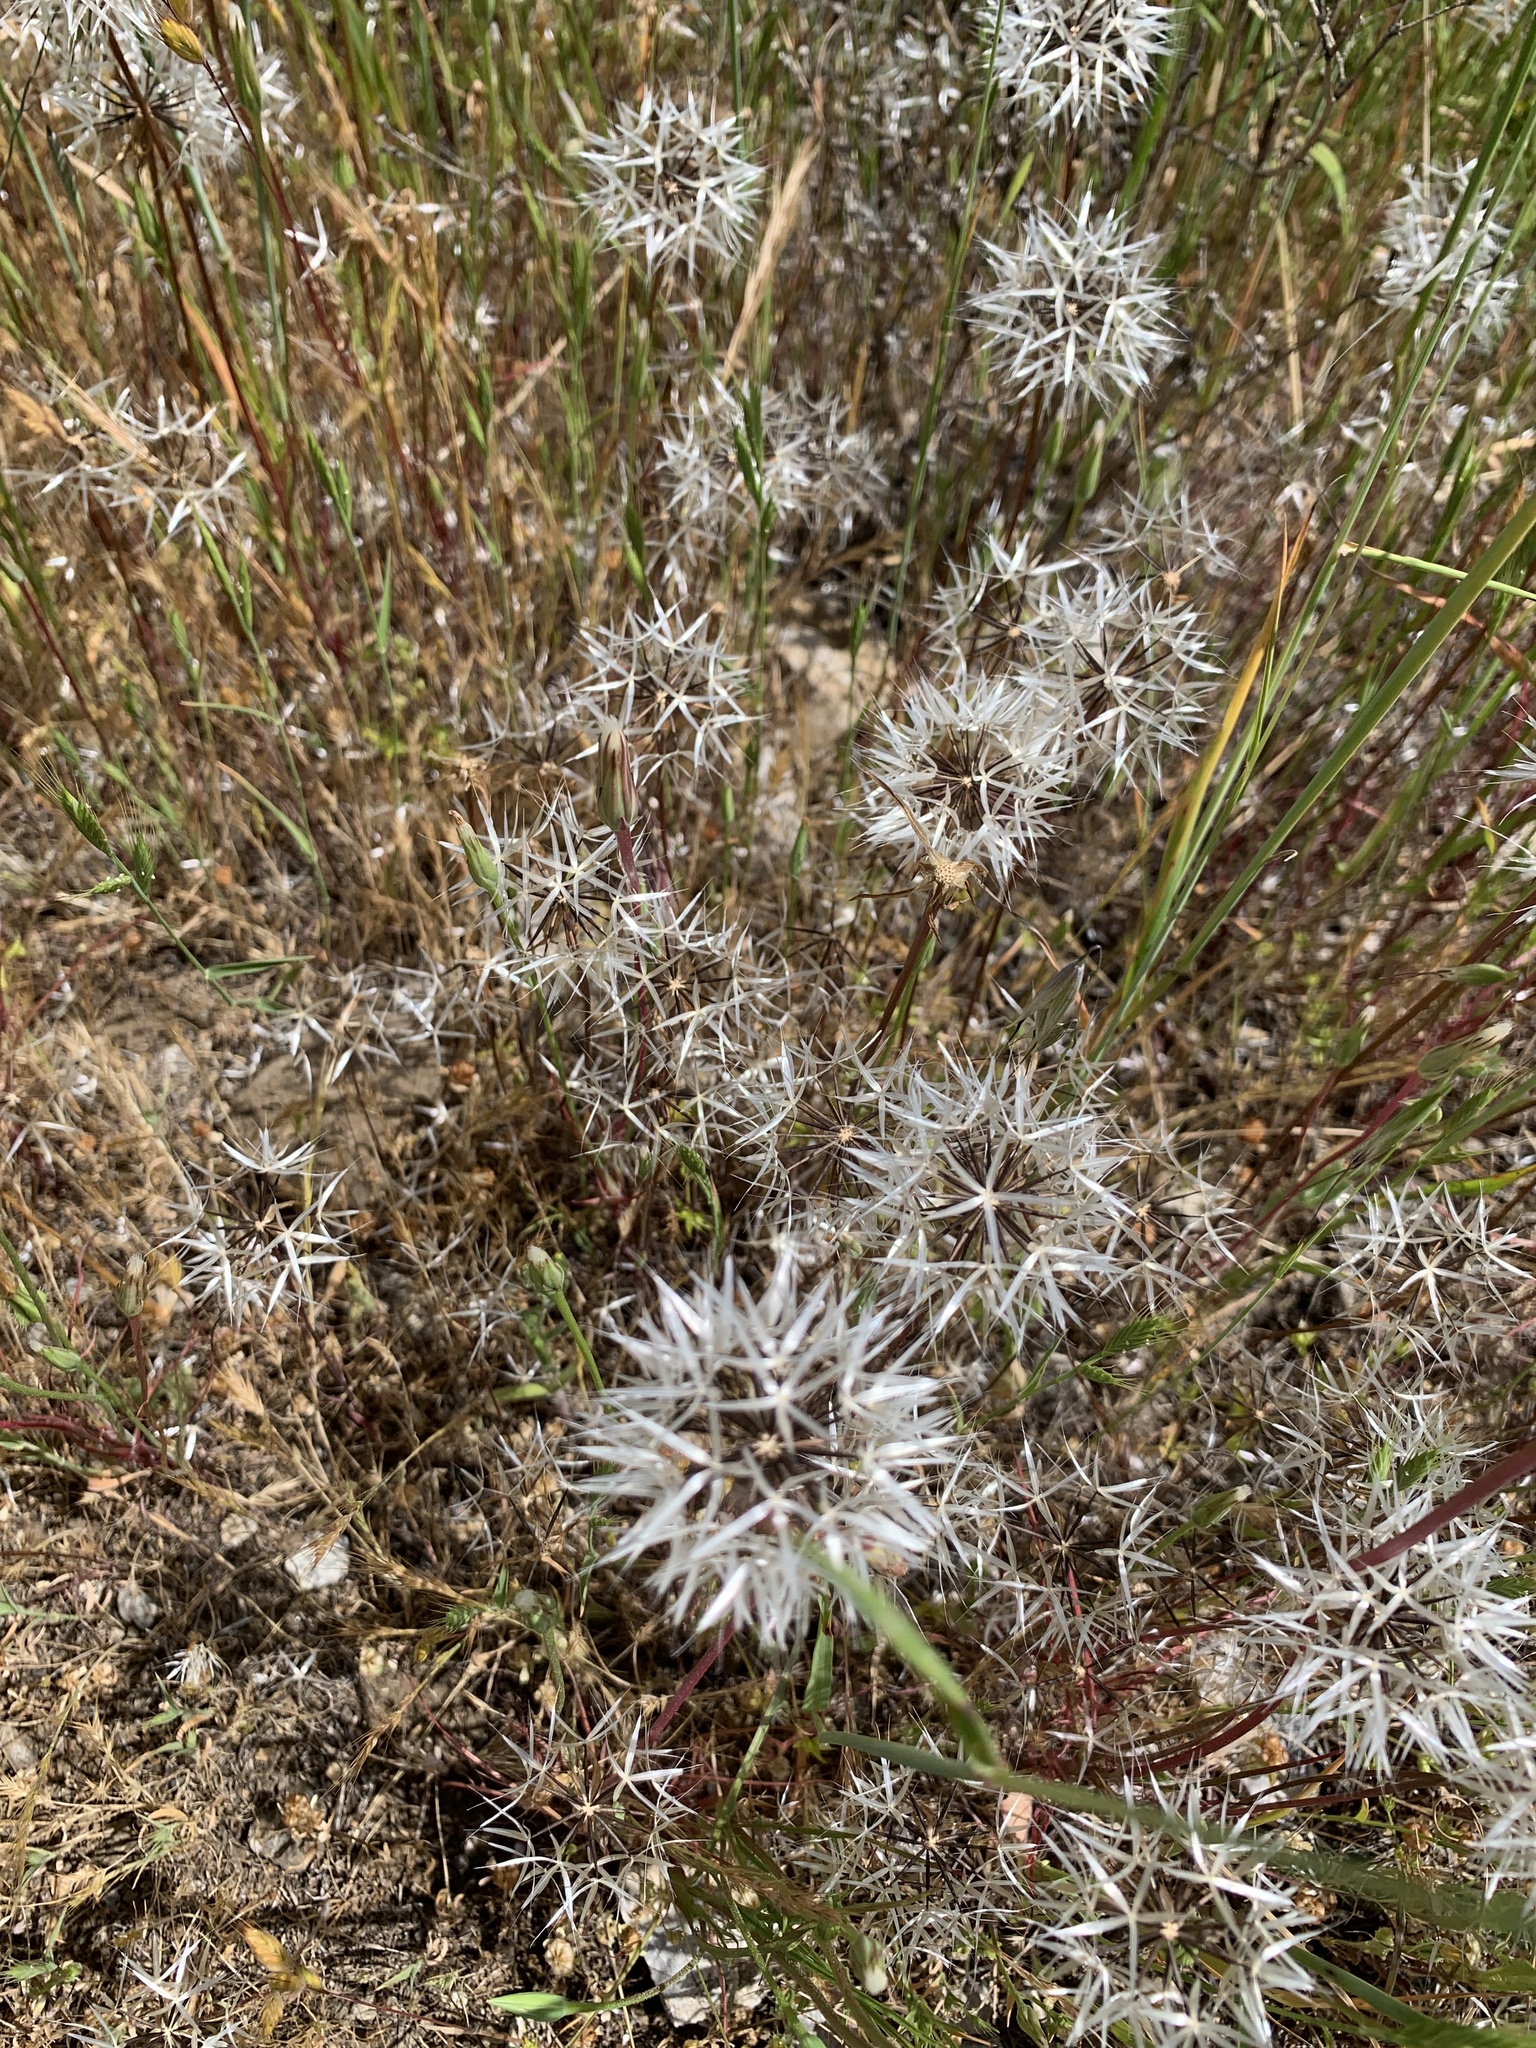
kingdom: Plantae
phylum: Tracheophyta
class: Magnoliopsida
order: Asterales
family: Asteraceae
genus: Microseris
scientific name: Microseris lindleyi
